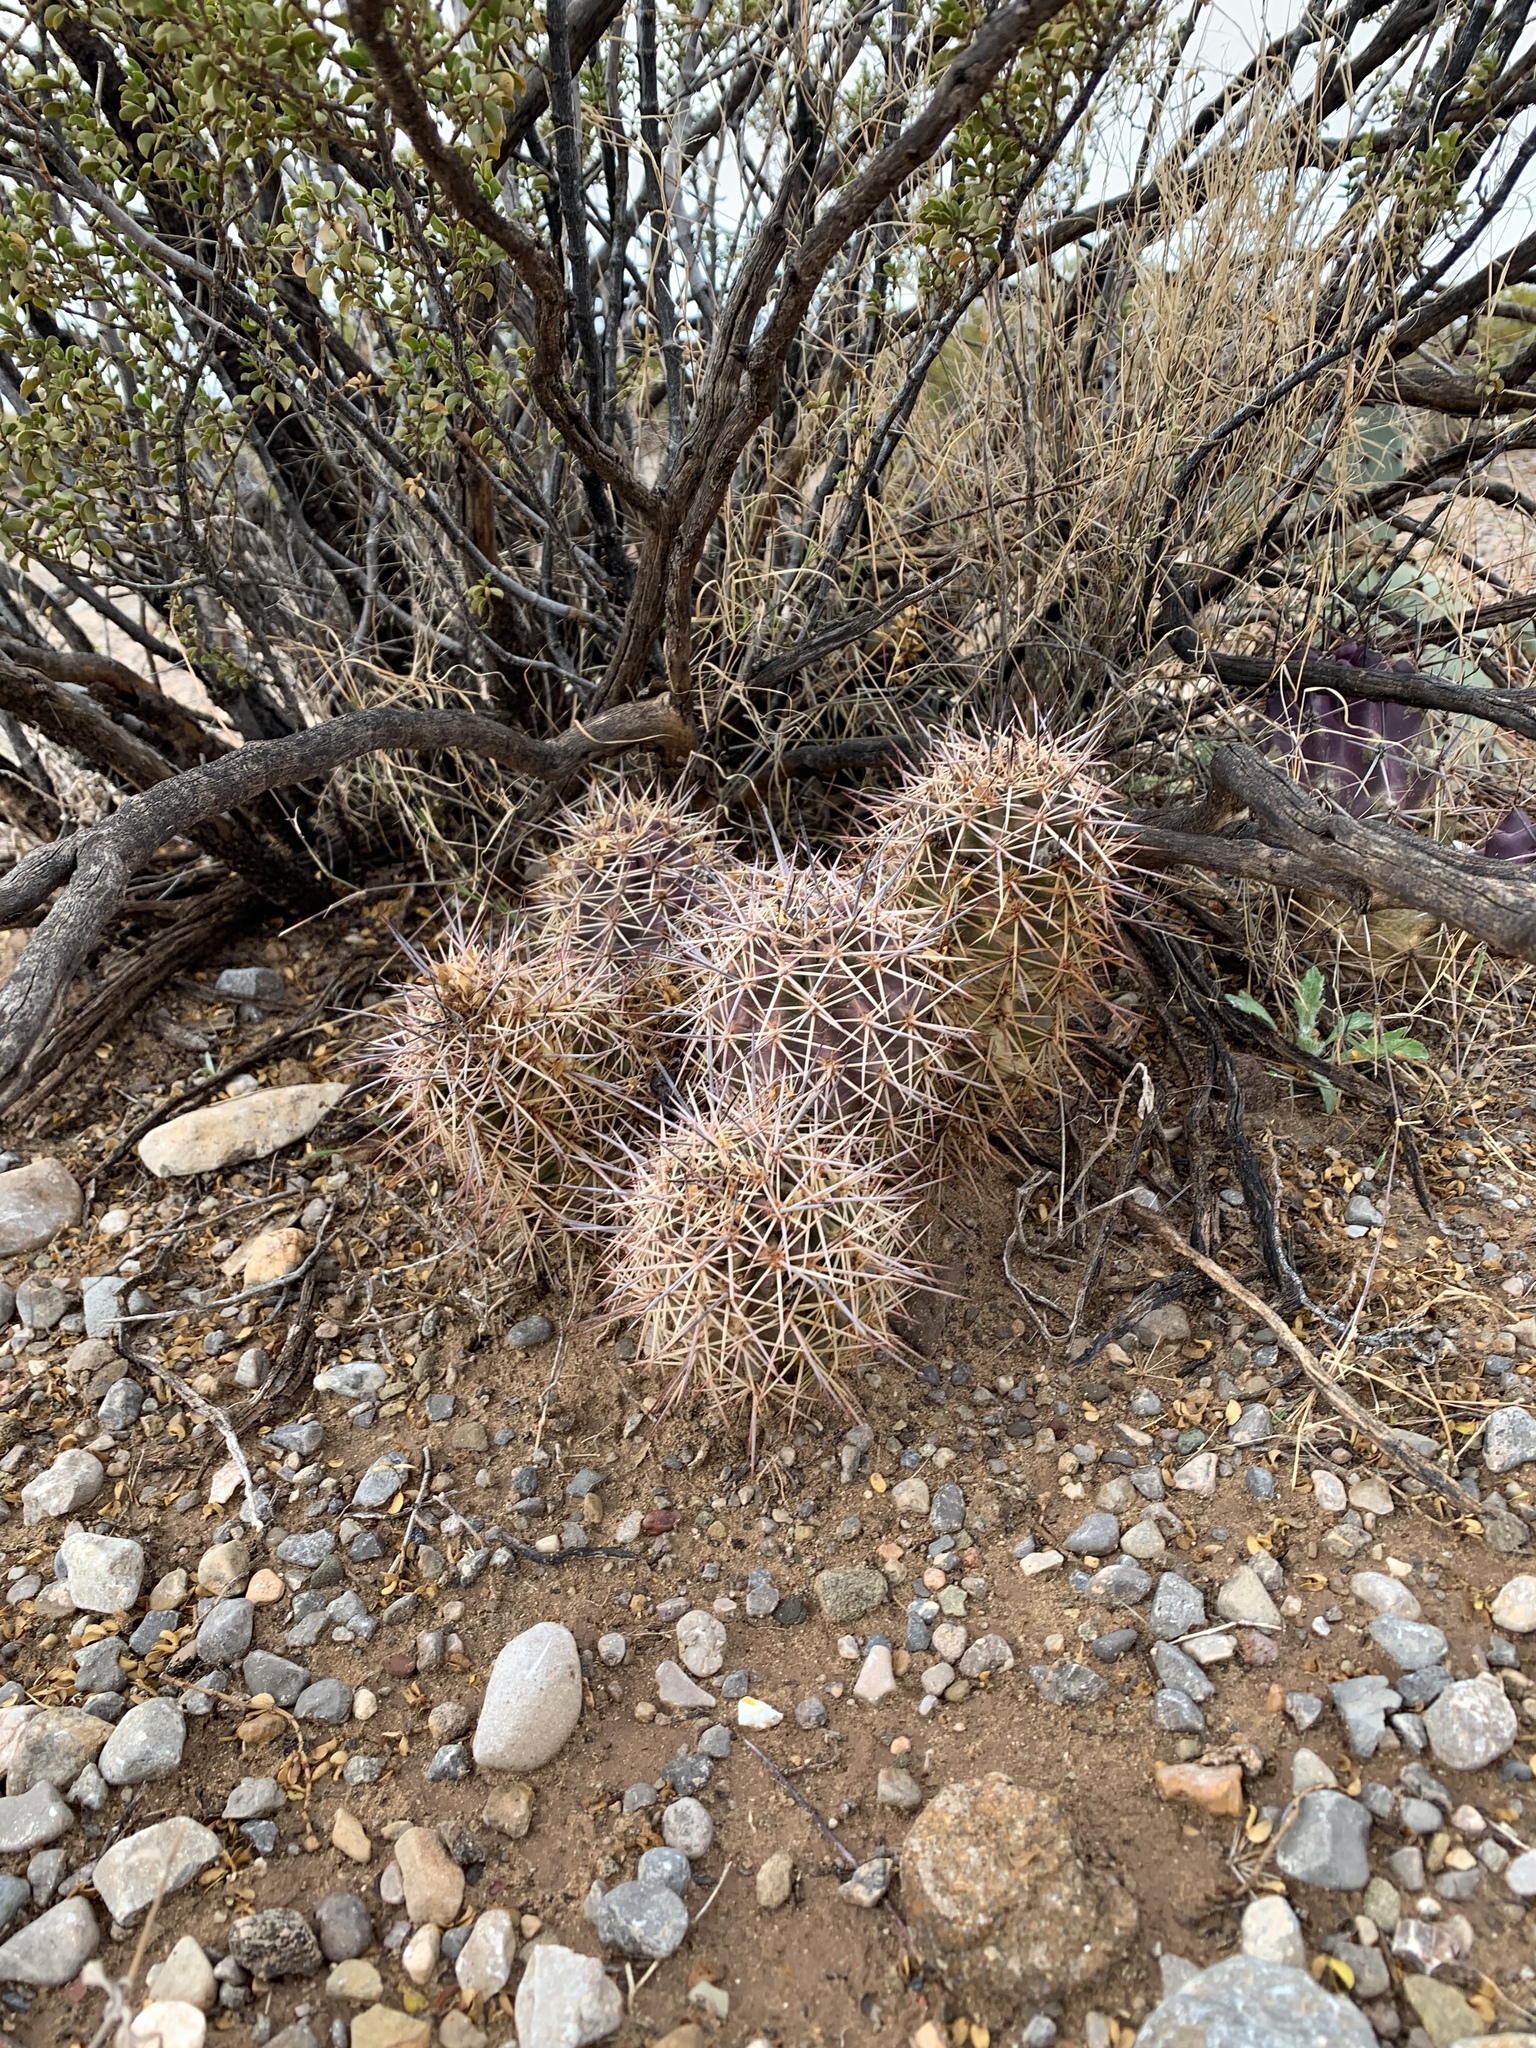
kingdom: Plantae
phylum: Tracheophyta
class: Magnoliopsida
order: Caryophyllales
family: Cactaceae
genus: Echinocereus
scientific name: Echinocereus coccineus
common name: Scarlet hedgehog cactus
